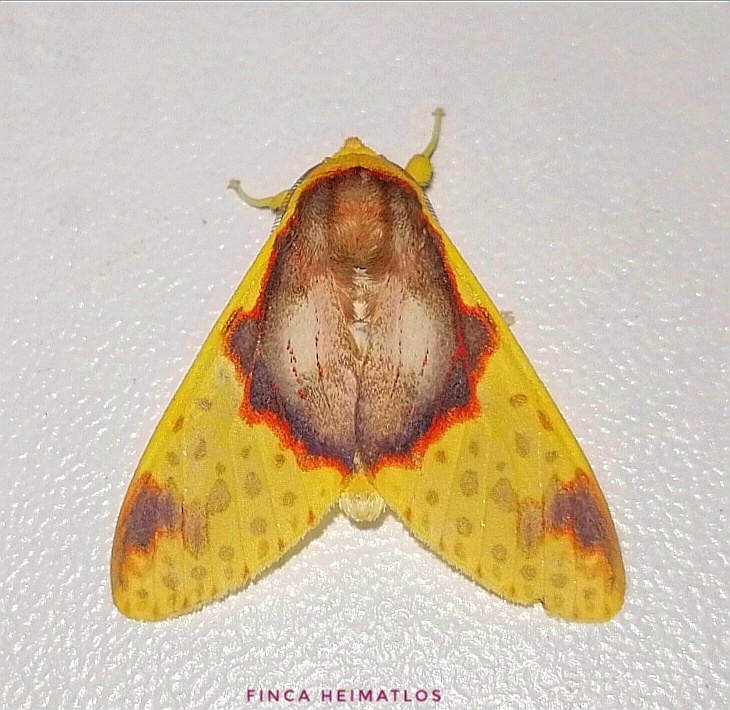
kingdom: Animalia
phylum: Arthropoda
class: Insecta
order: Lepidoptera
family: Erebidae
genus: Amaxia
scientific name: Amaxia flavicollis
